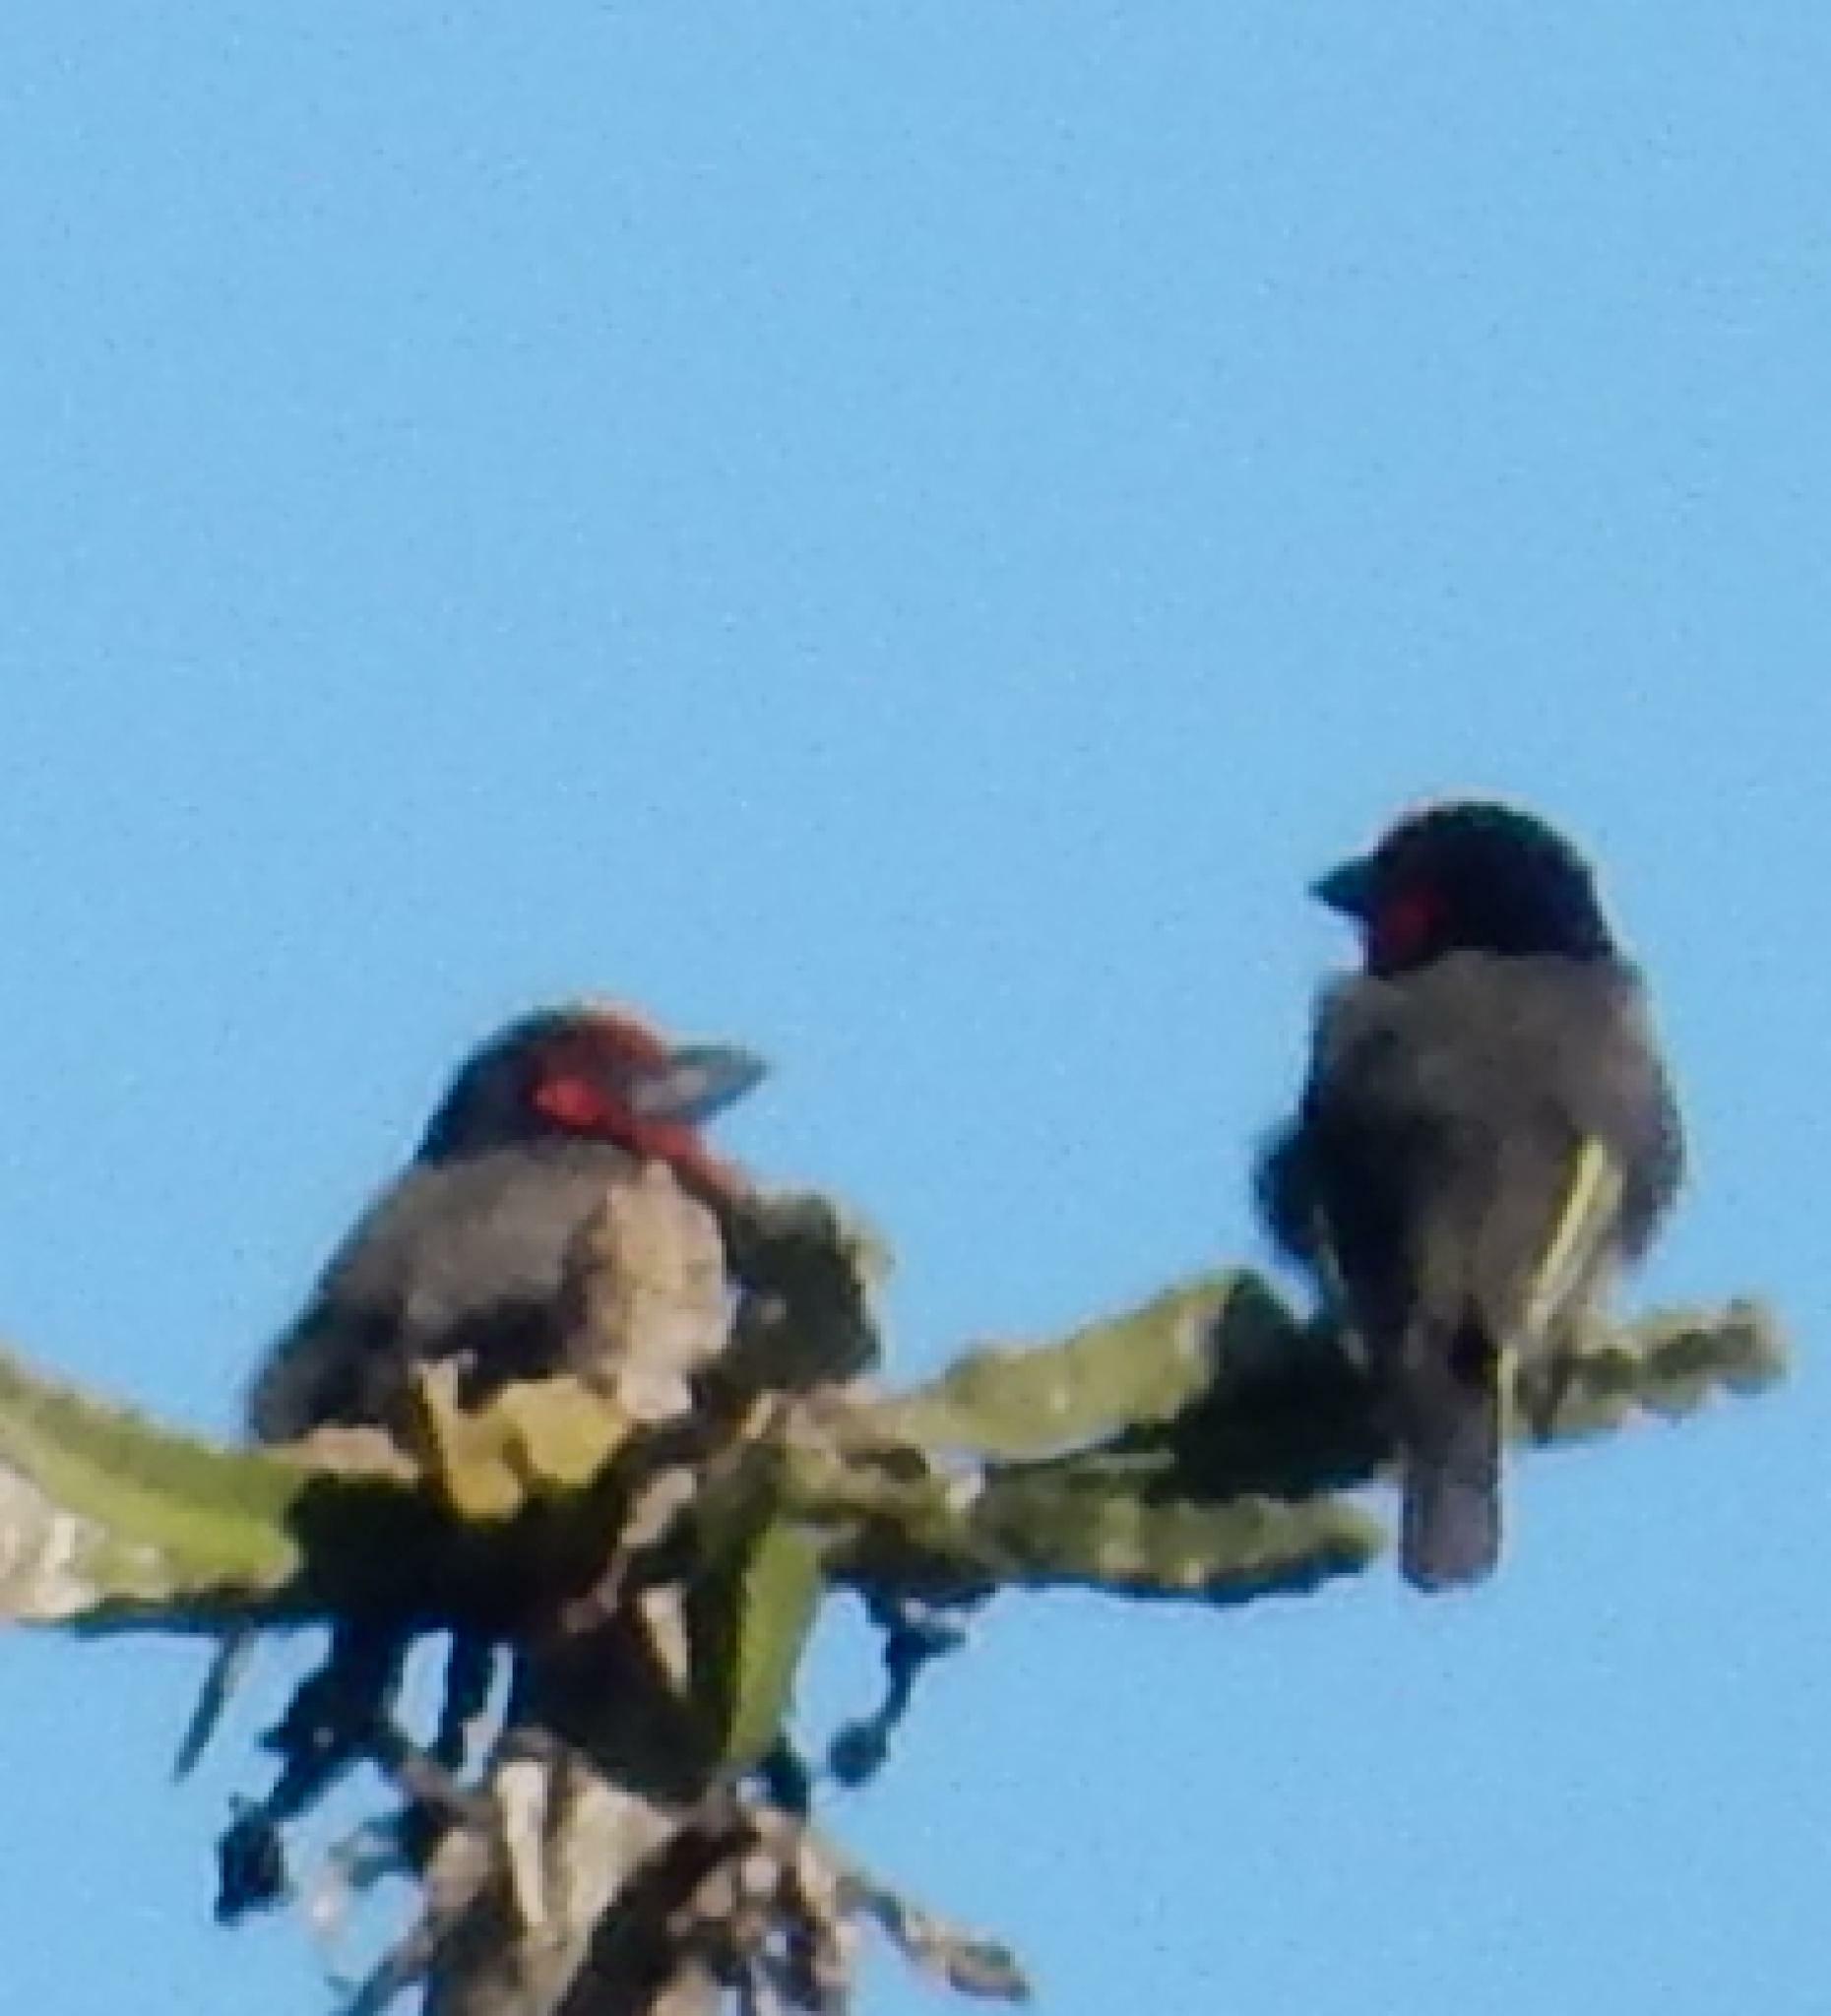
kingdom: Animalia
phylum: Chordata
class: Aves
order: Piciformes
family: Lybiidae
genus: Lybius
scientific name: Lybius torquatus
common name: Black-collared barbet
